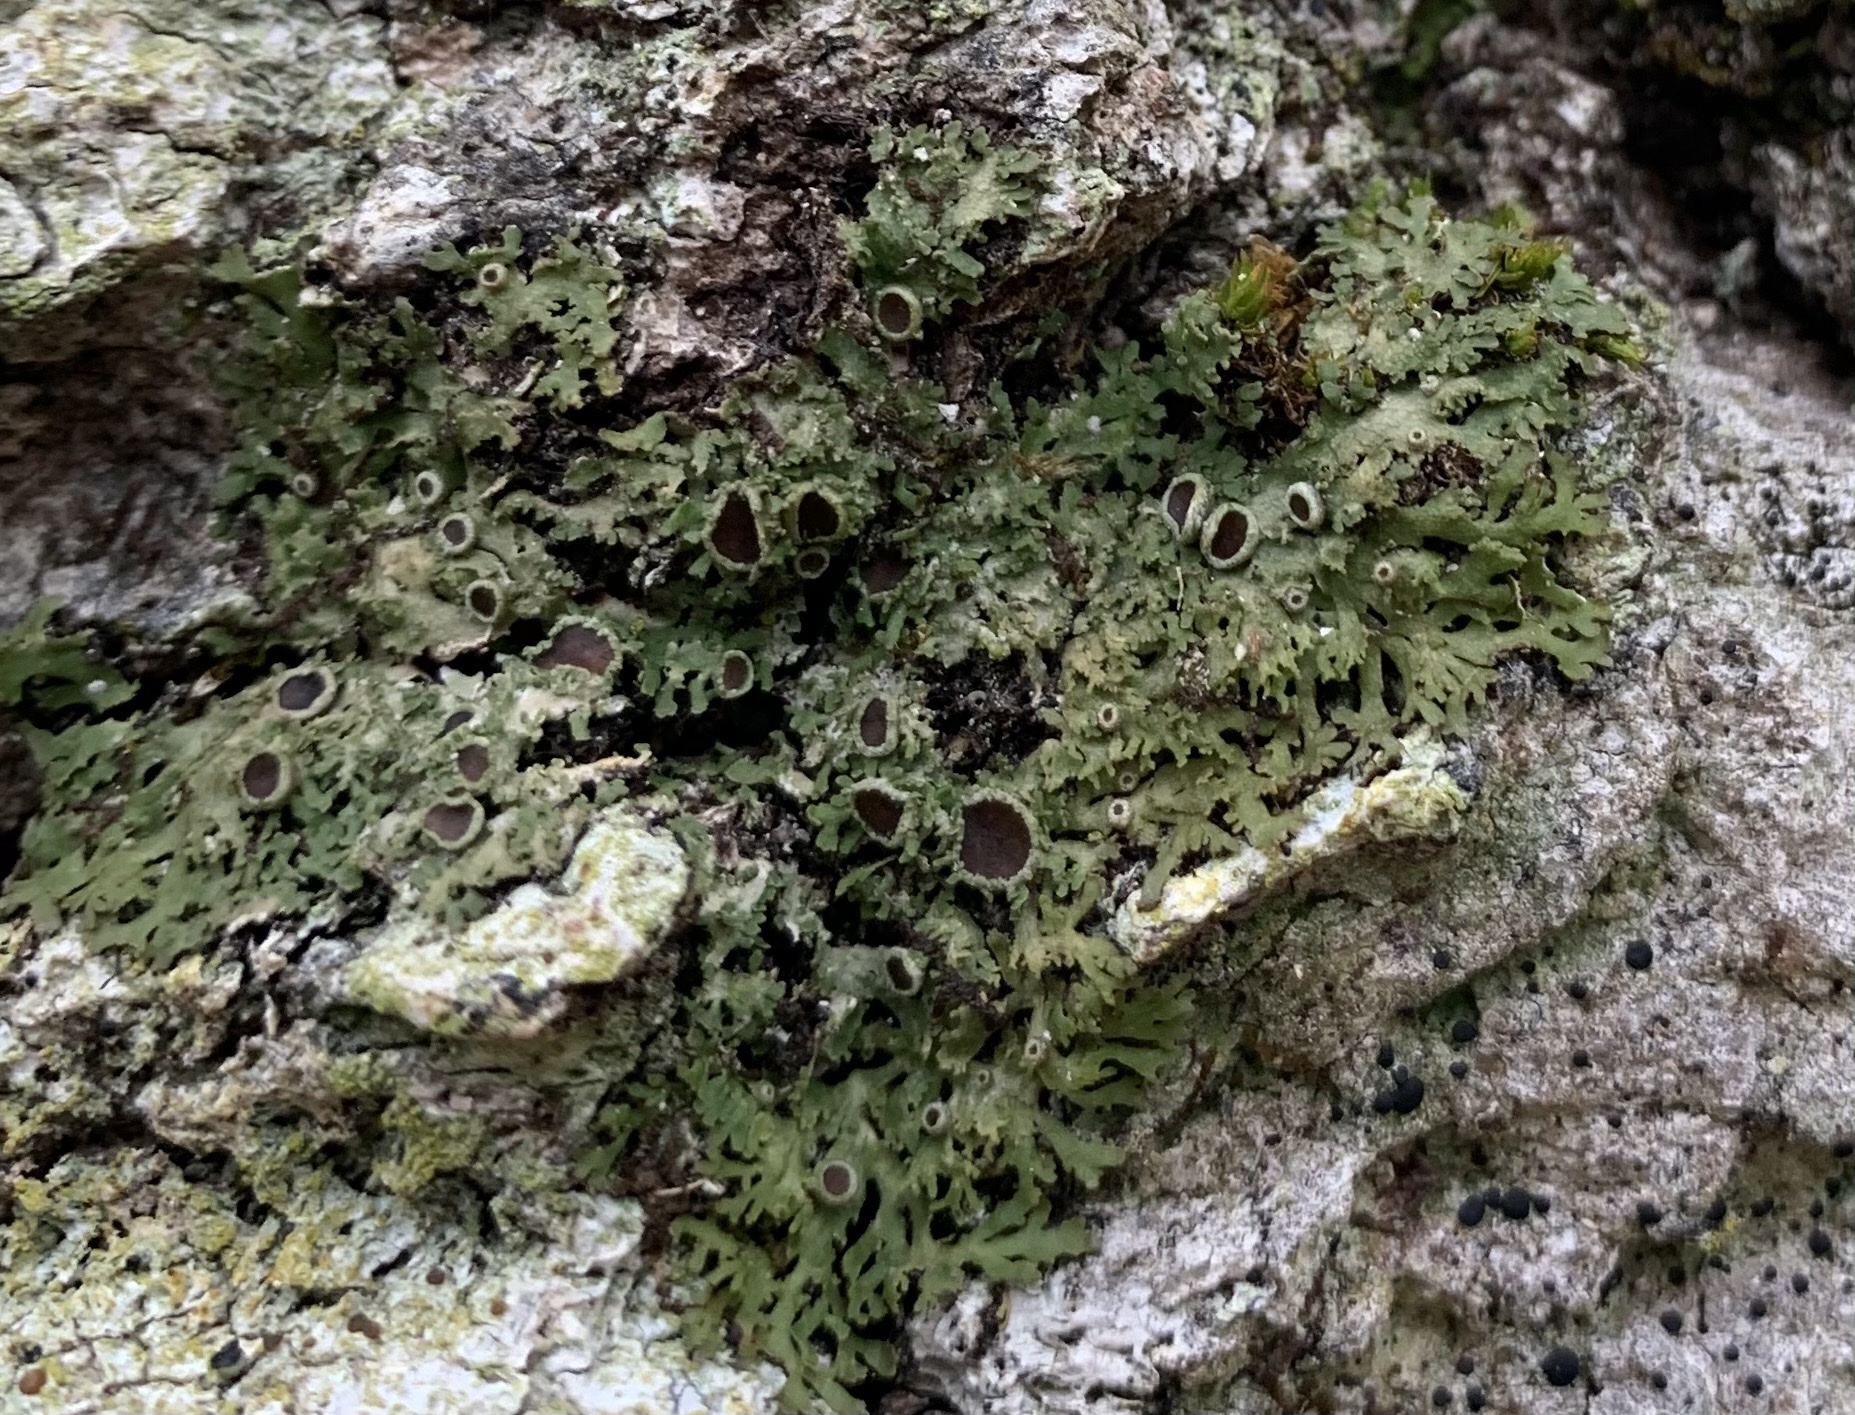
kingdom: Fungi
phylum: Ascomycota
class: Lecanoromycetes
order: Caliciales
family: Physciaceae
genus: Kurokawia
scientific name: Kurokawia palmulata
